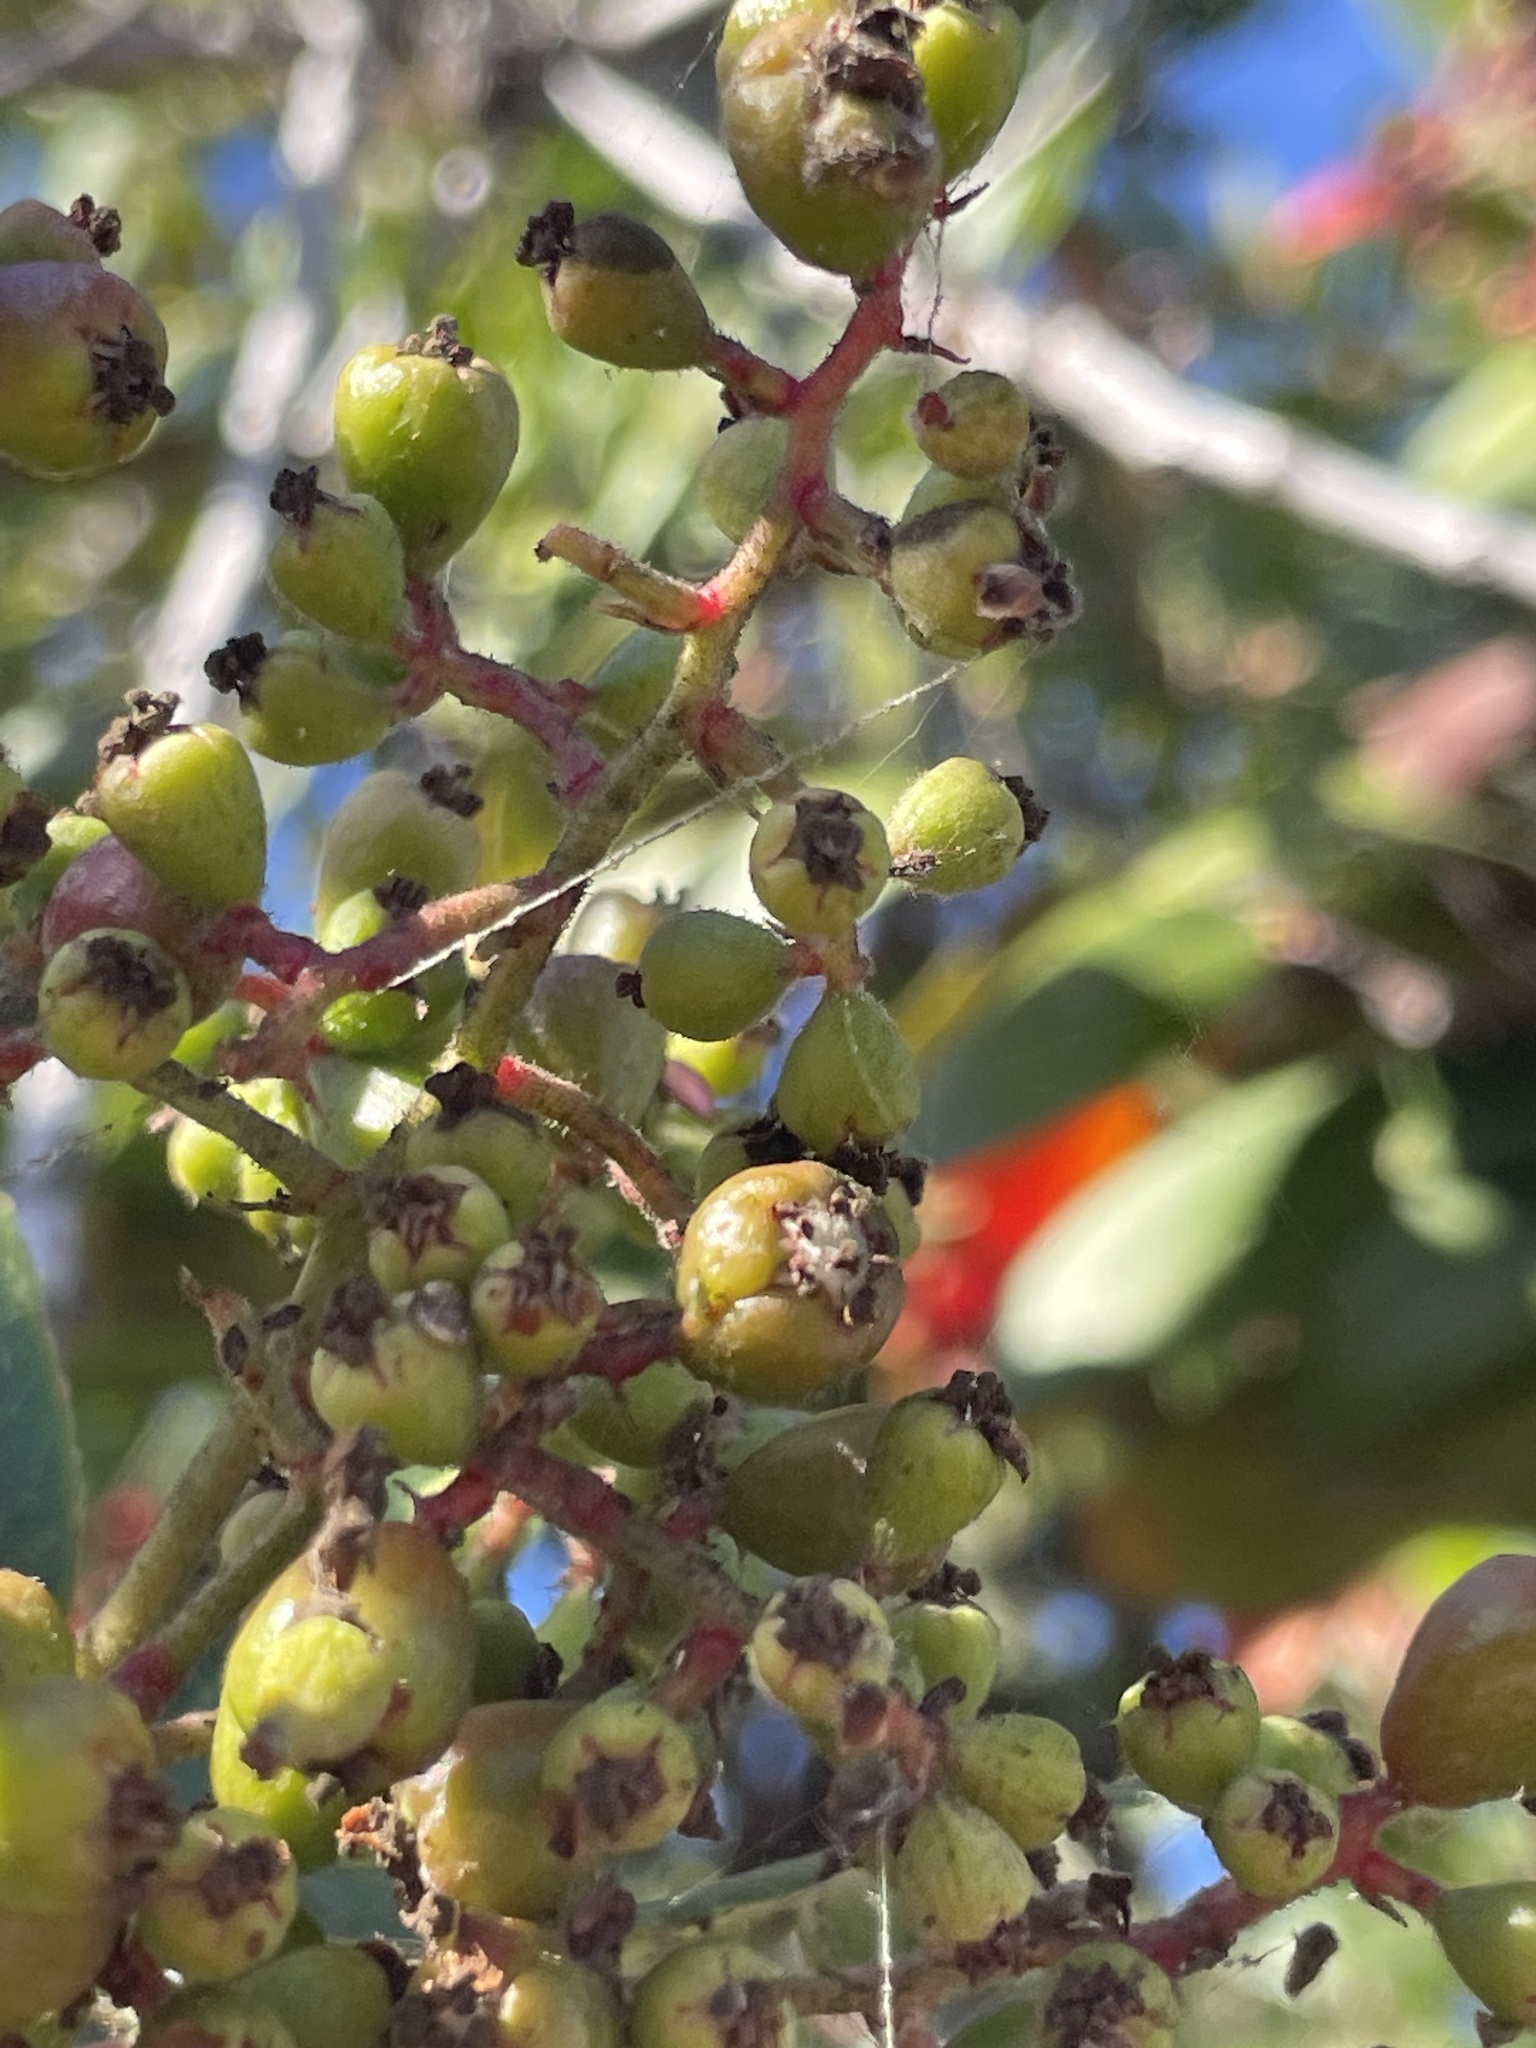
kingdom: Animalia
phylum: Arthropoda
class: Insecta
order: Diptera
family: Cecidomyiidae
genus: Asphondylia
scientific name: Asphondylia photiniae
